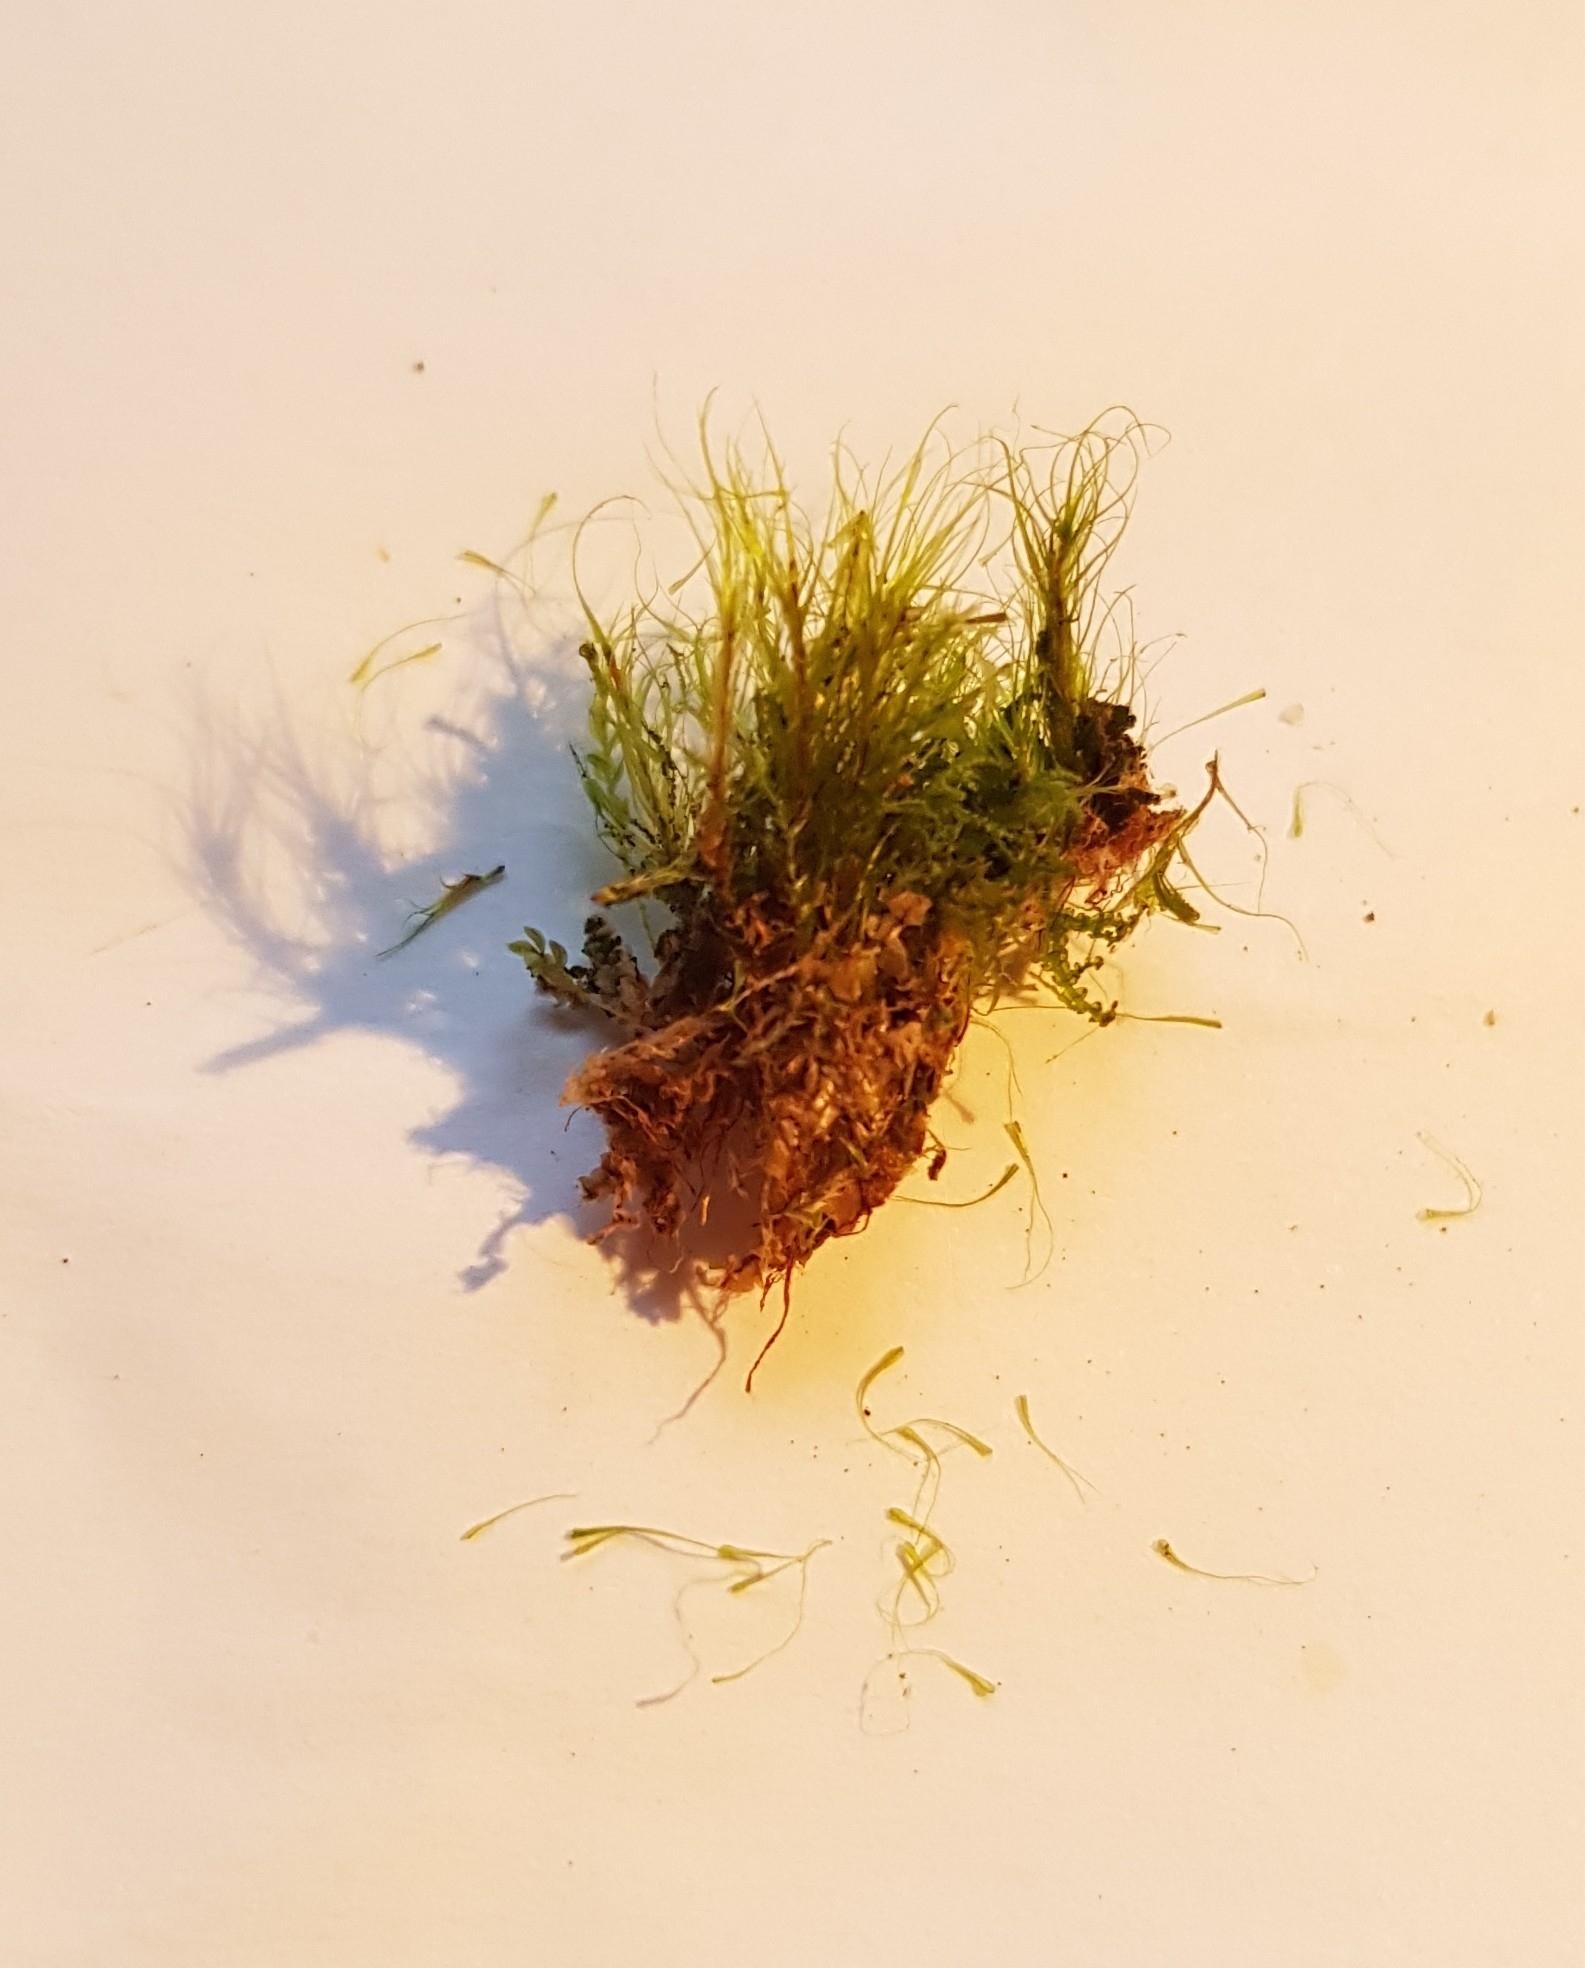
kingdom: Plantae
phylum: Bryophyta
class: Bryopsida
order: Dicranales
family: Leucobryaceae
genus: Dicranodontium
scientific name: Dicranodontium denudatum
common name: Beaked bow moss
